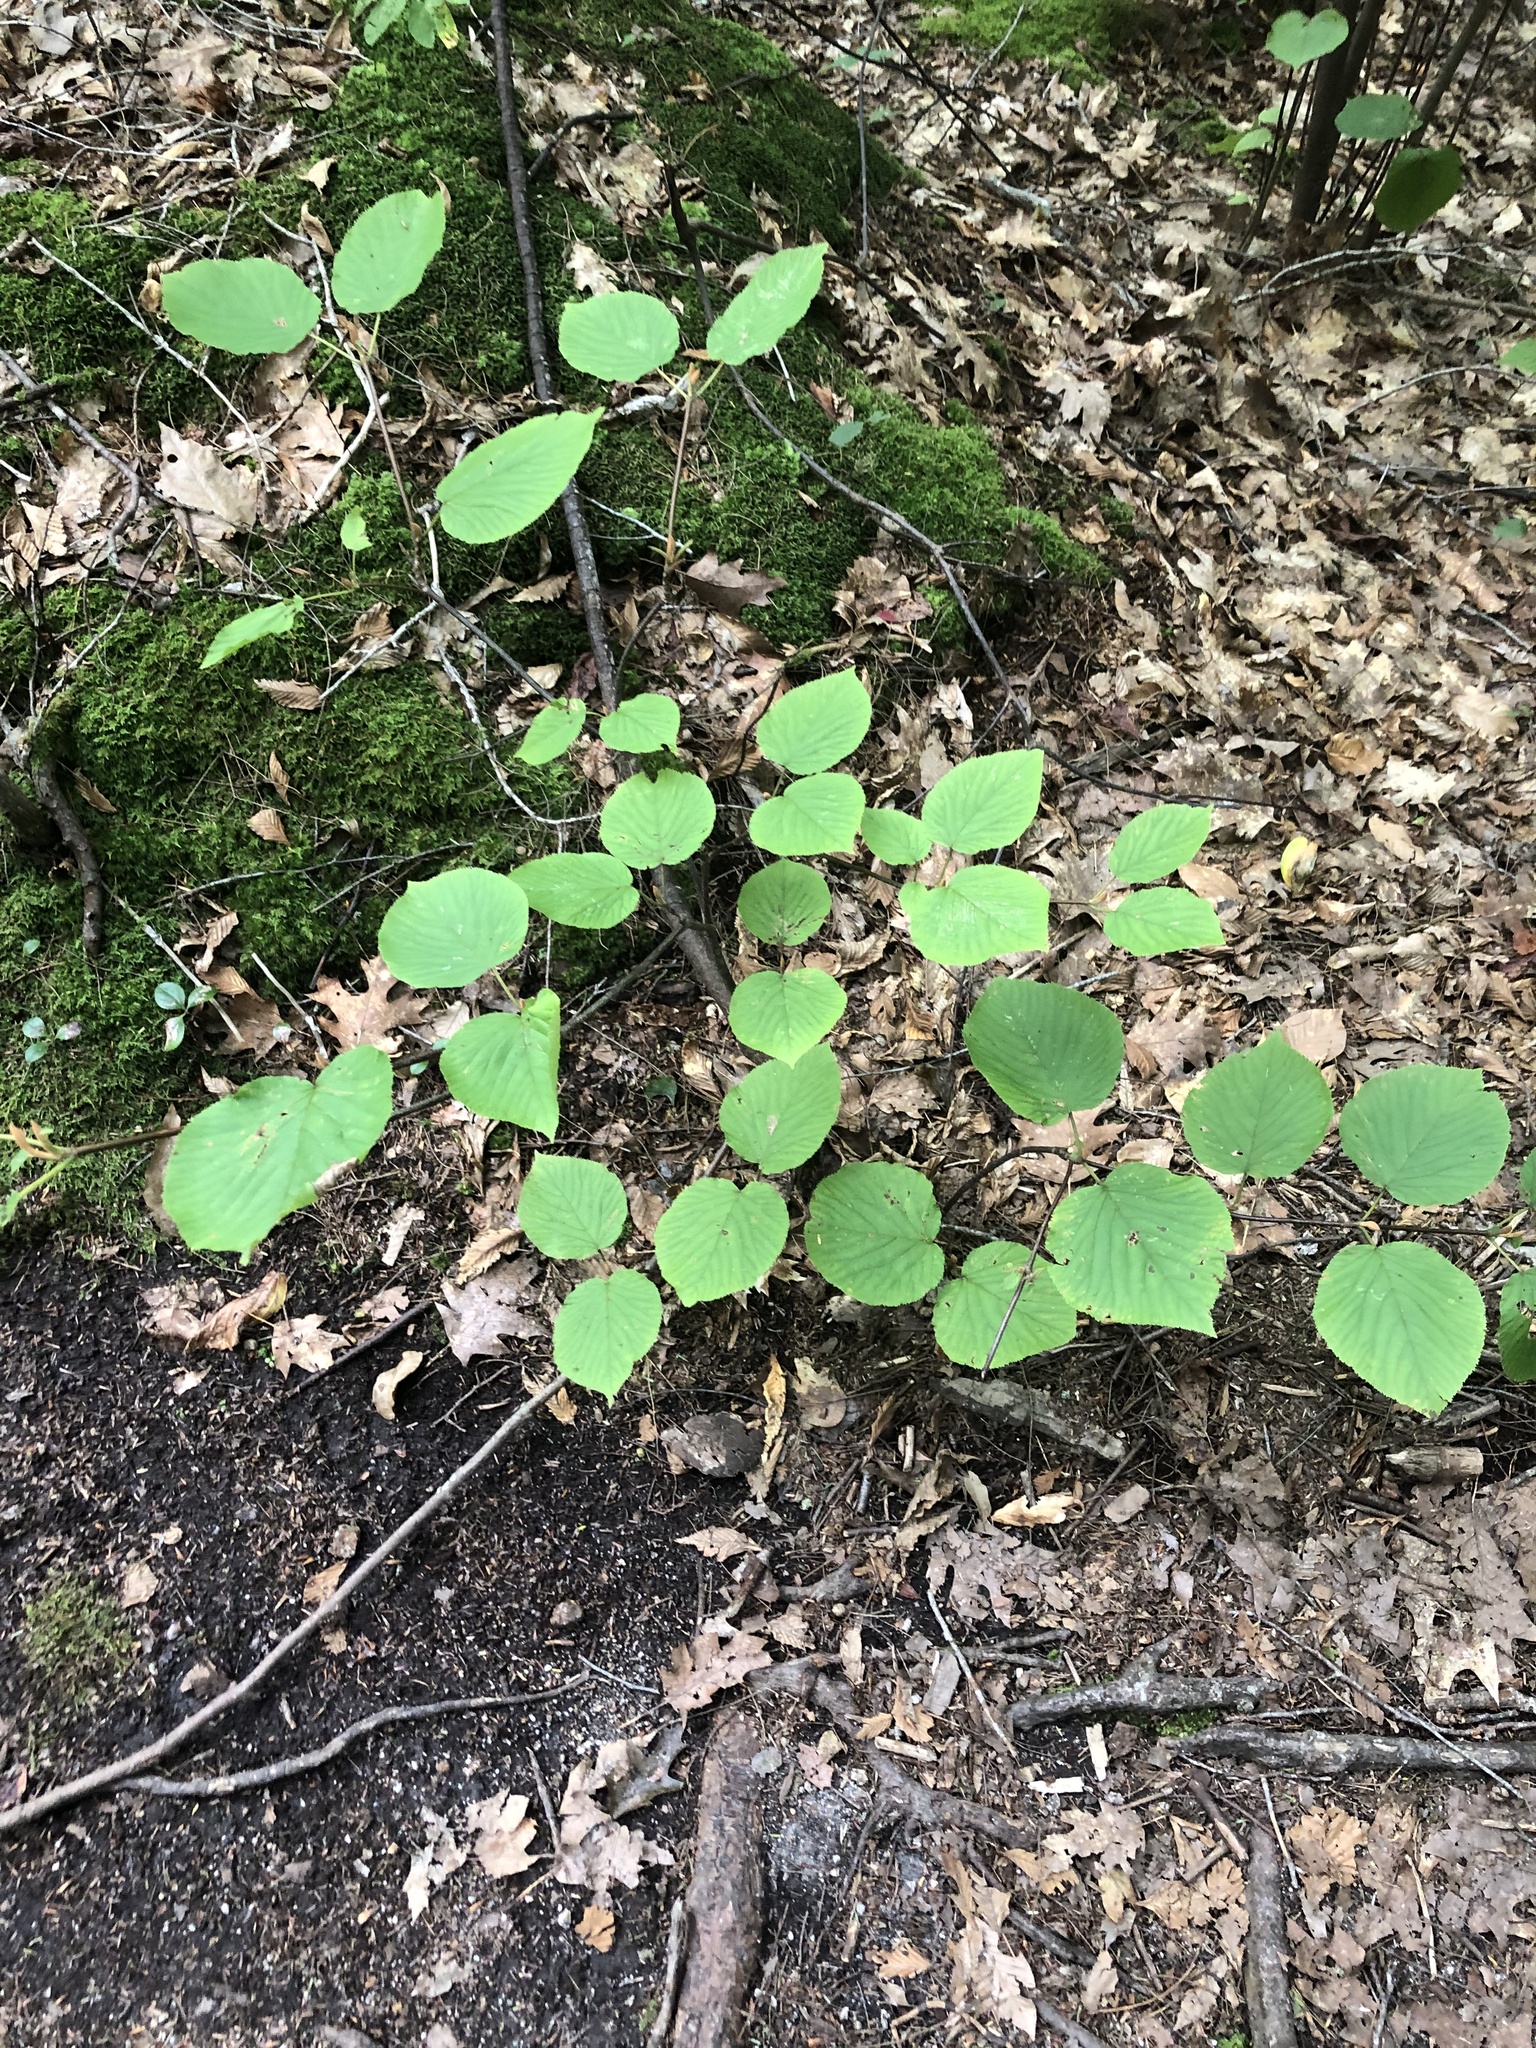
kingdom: Plantae
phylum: Tracheophyta
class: Magnoliopsida
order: Dipsacales
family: Viburnaceae
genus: Viburnum
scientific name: Viburnum lantanoides
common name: Hobblebush
